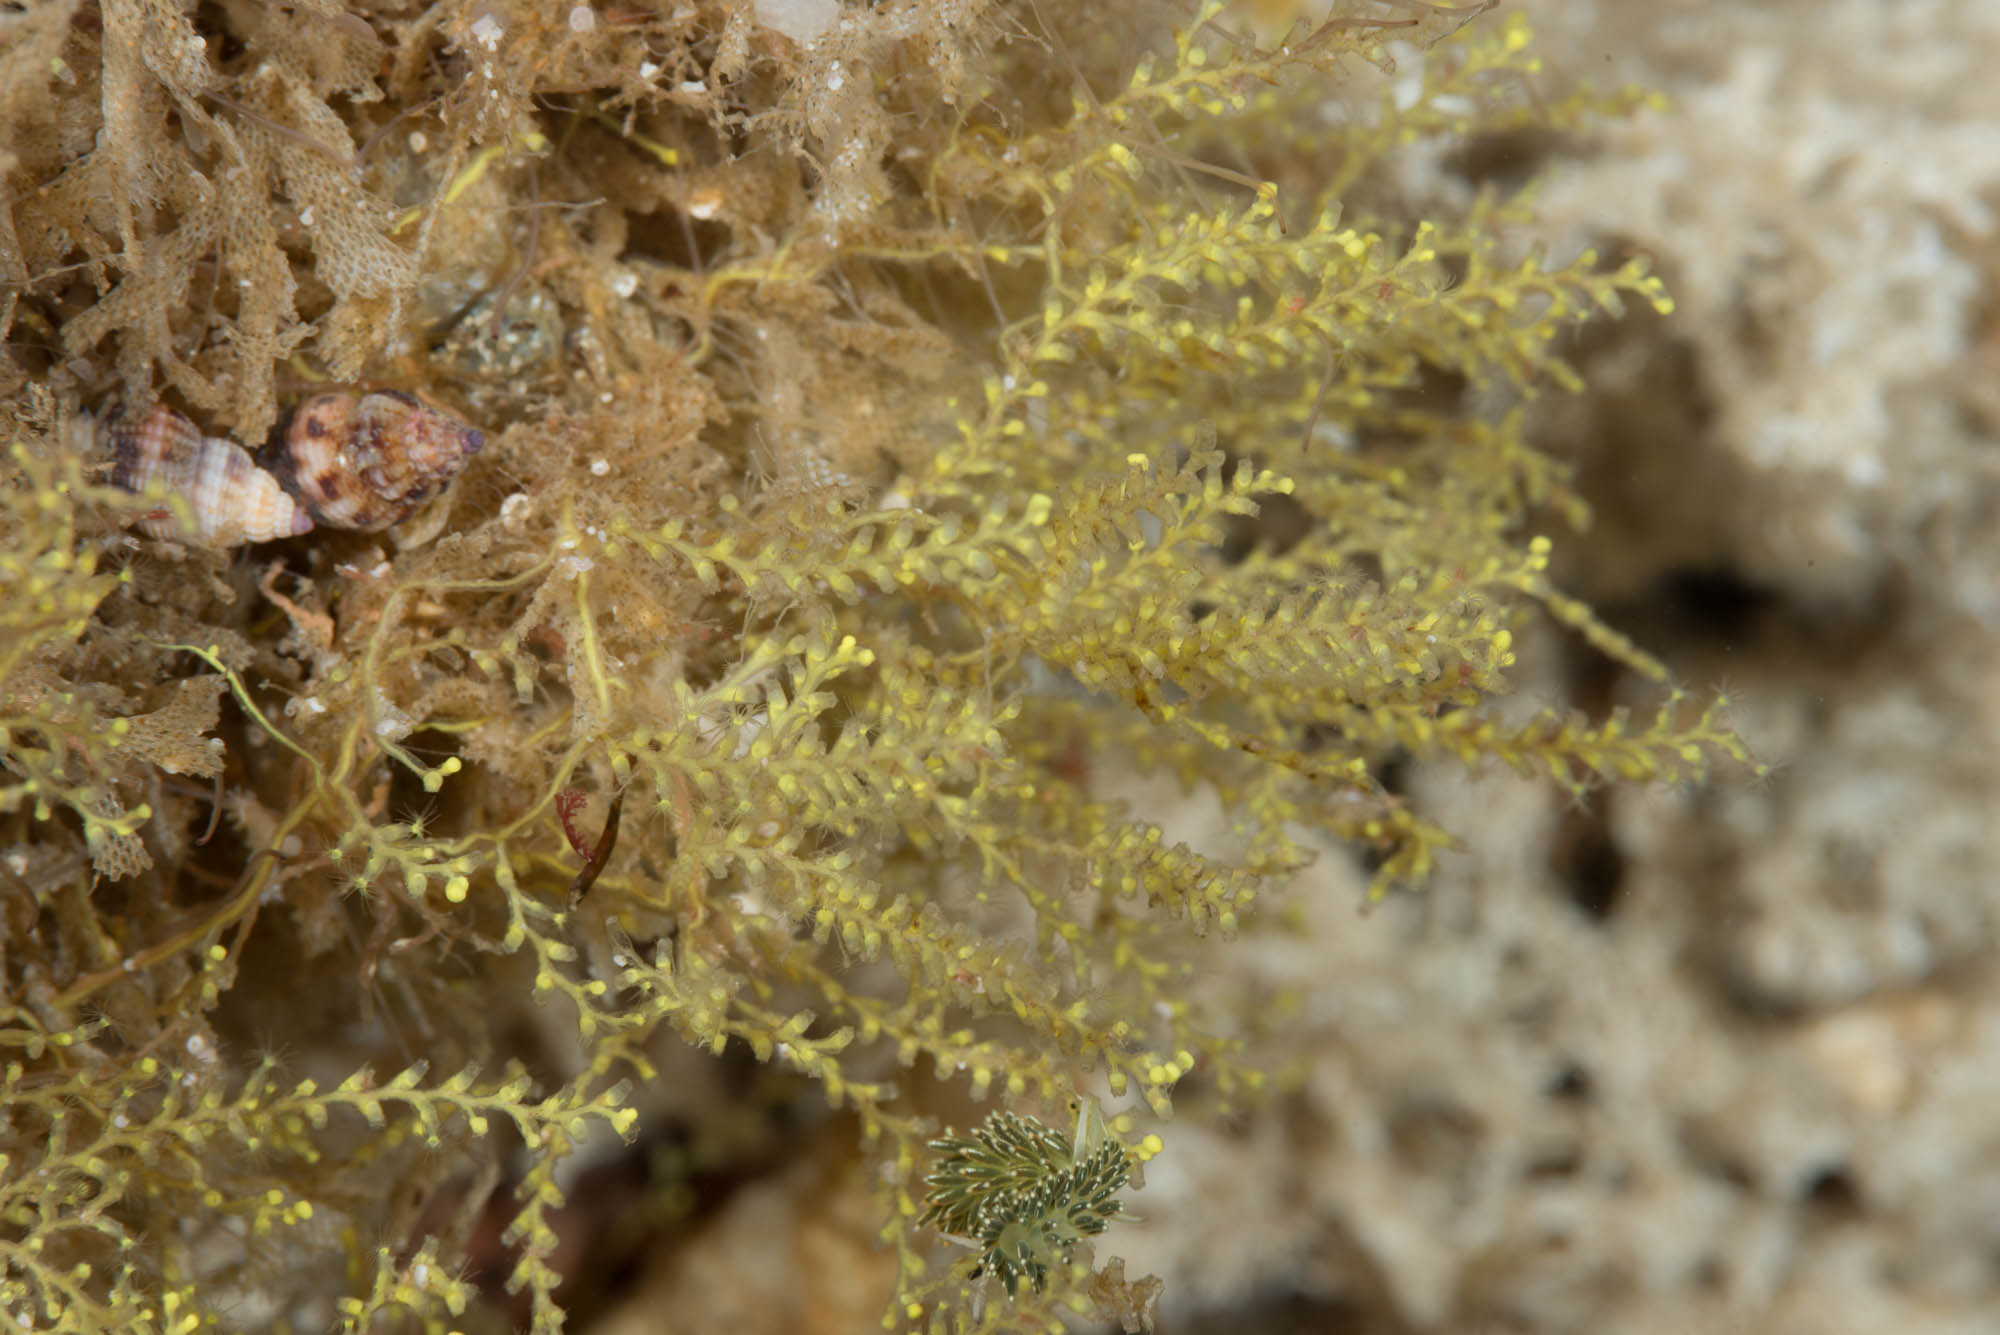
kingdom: Animalia
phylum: Mollusca
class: Gastropoda
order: Nudibranchia
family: Trinchesiidae
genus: Diaphoreolis
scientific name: Diaphoreolis viridis
